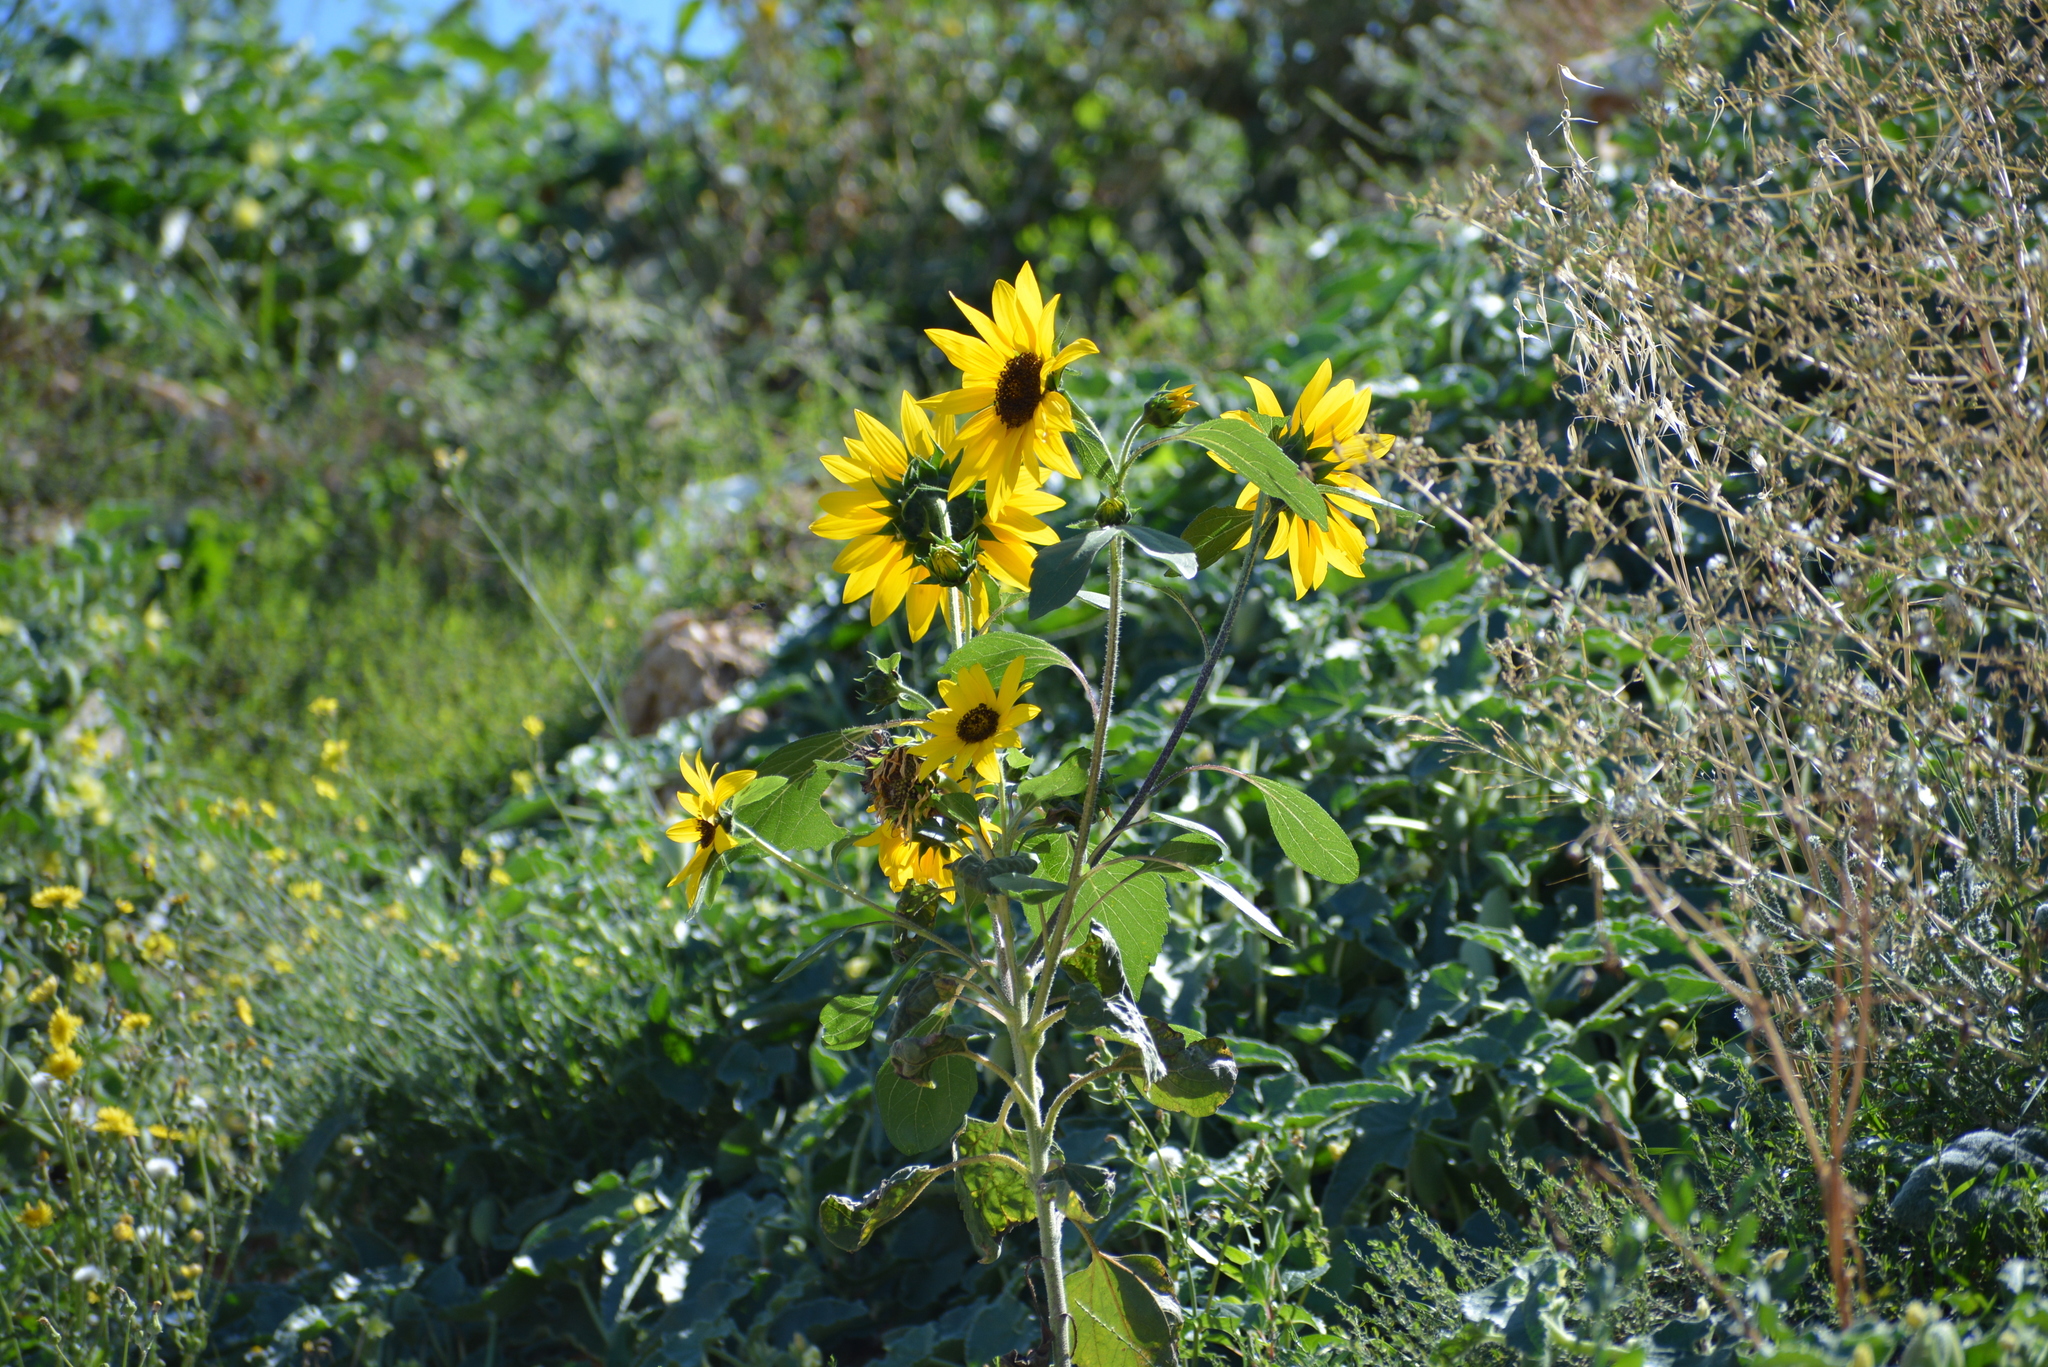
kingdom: Plantae
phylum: Tracheophyta
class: Magnoliopsida
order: Asterales
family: Asteraceae
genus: Helianthus
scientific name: Helianthus annuus
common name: Sunflower
